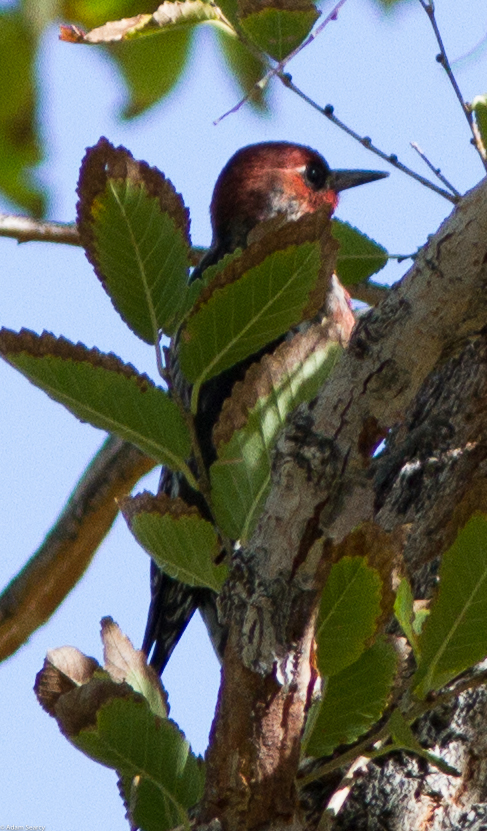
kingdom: Animalia
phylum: Chordata
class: Aves
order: Piciformes
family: Picidae
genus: Sphyrapicus
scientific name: Sphyrapicus ruber
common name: Red-breasted sapsucker
